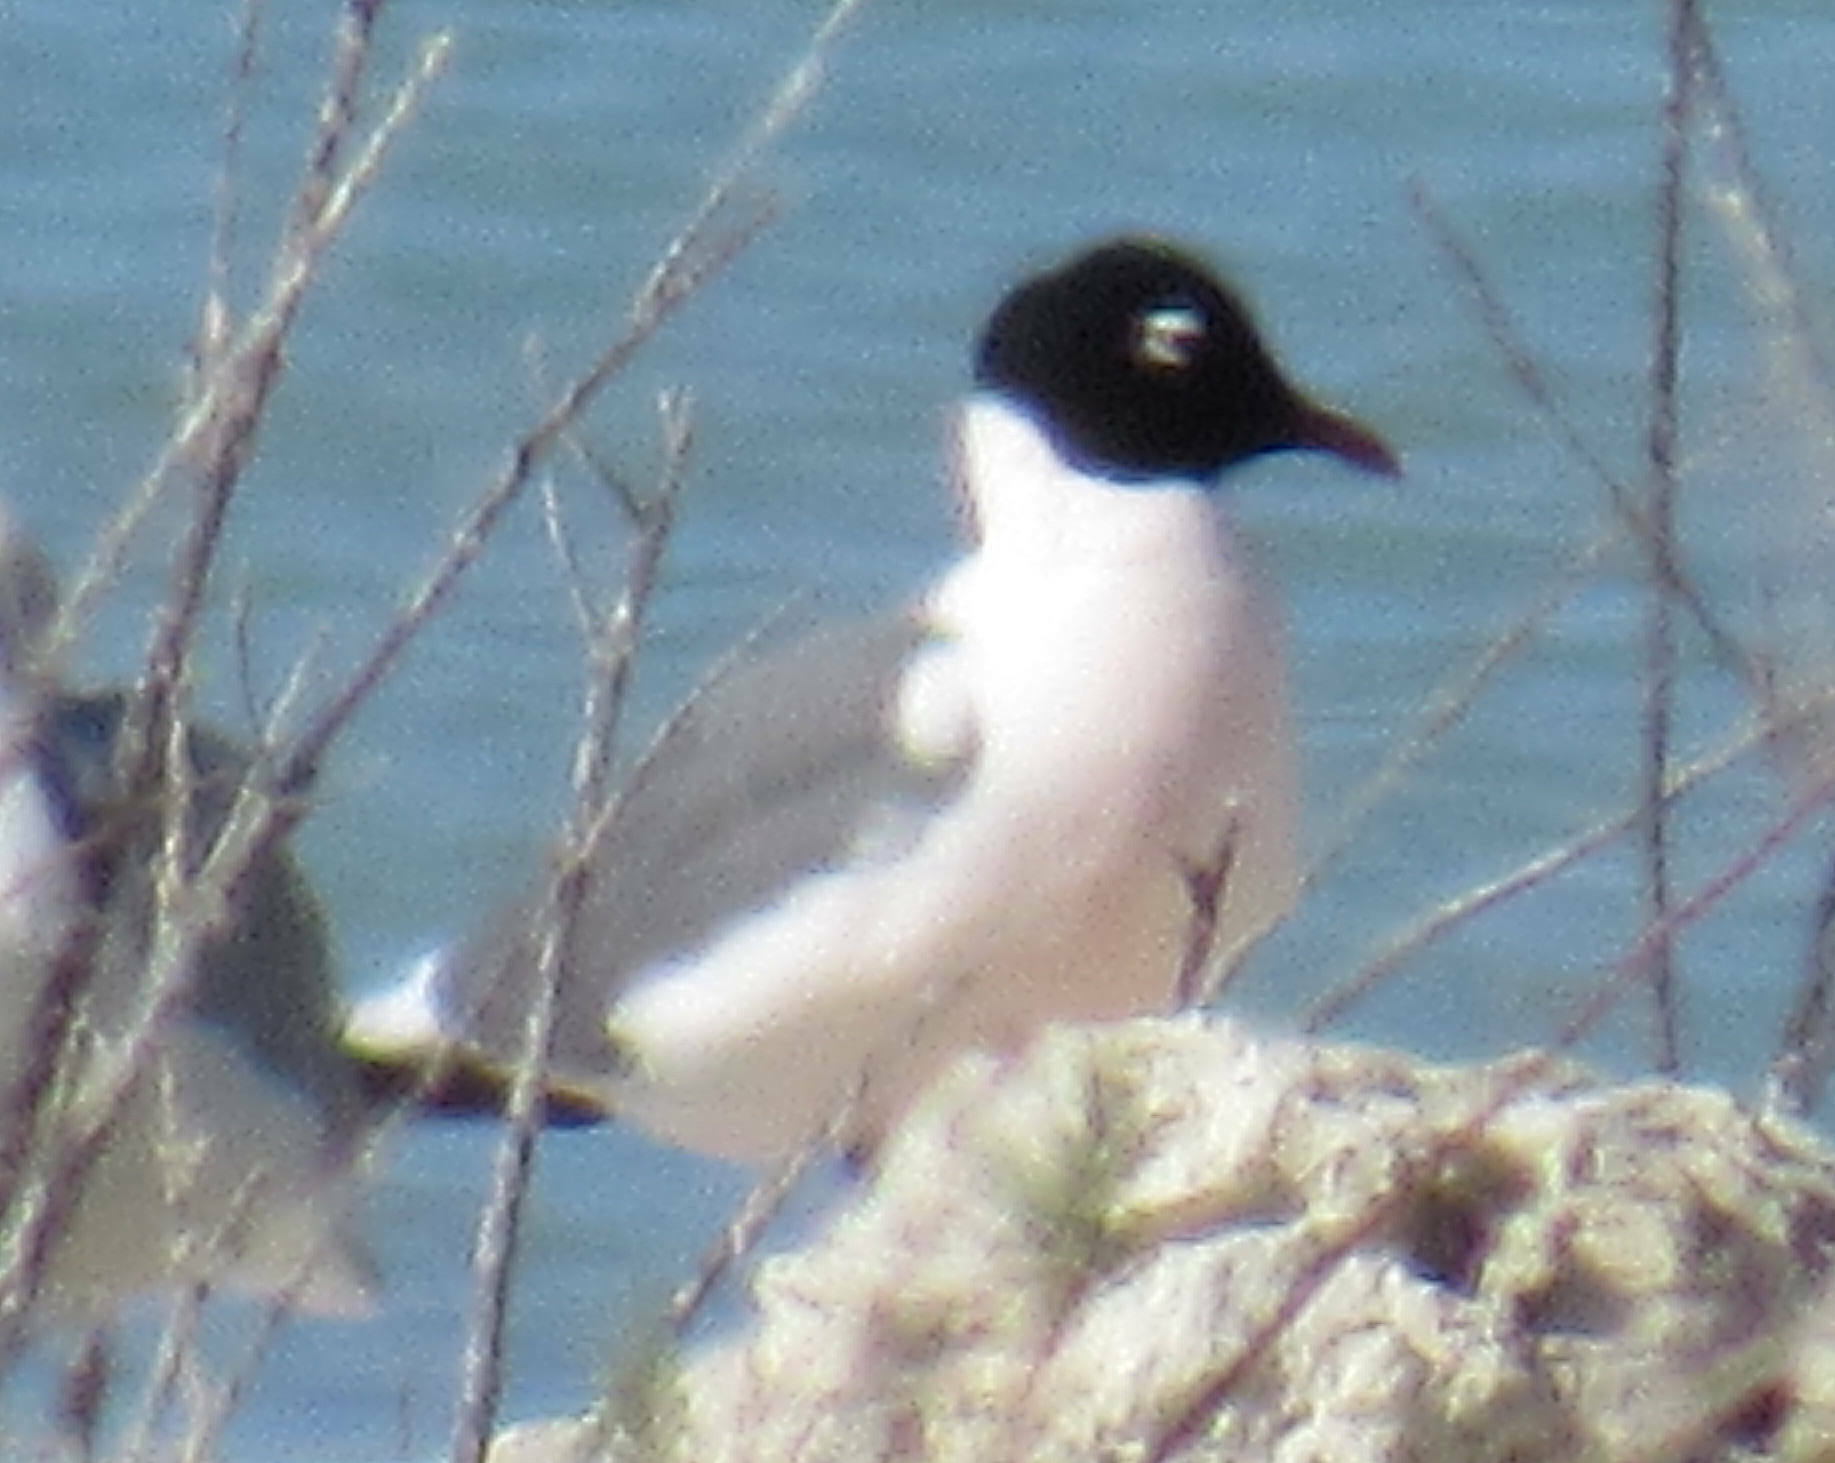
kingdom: Animalia
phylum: Chordata
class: Aves
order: Charadriiformes
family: Laridae
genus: Leucophaeus
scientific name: Leucophaeus pipixcan
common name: Franklin's gull
